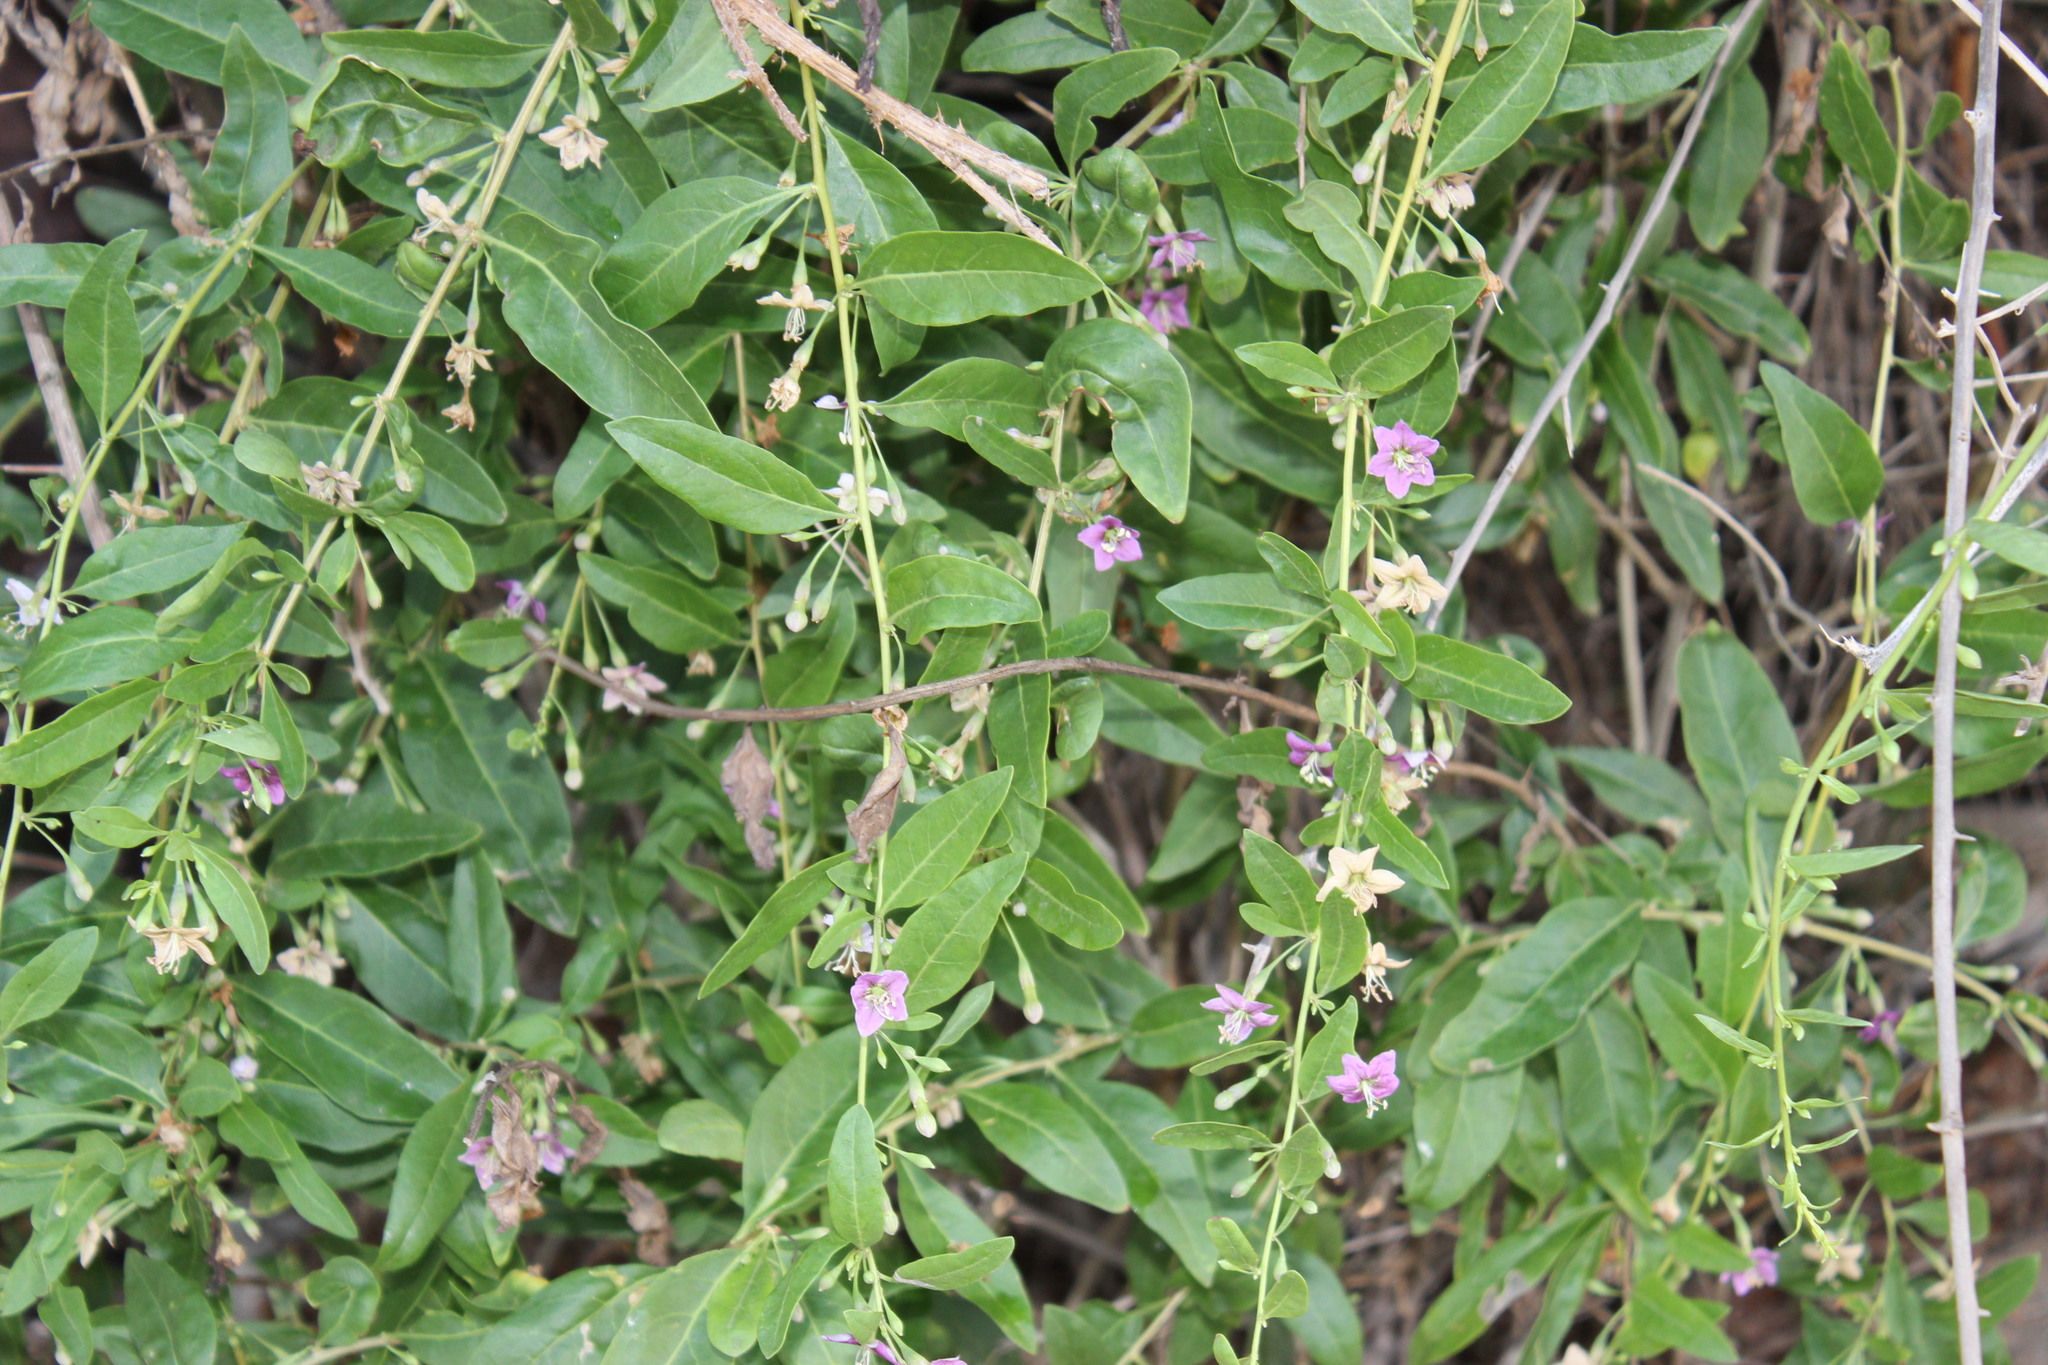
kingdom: Plantae
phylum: Tracheophyta
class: Magnoliopsida
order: Solanales
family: Solanaceae
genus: Lycium
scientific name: Lycium barbarum
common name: Duke of argyll's teaplant
